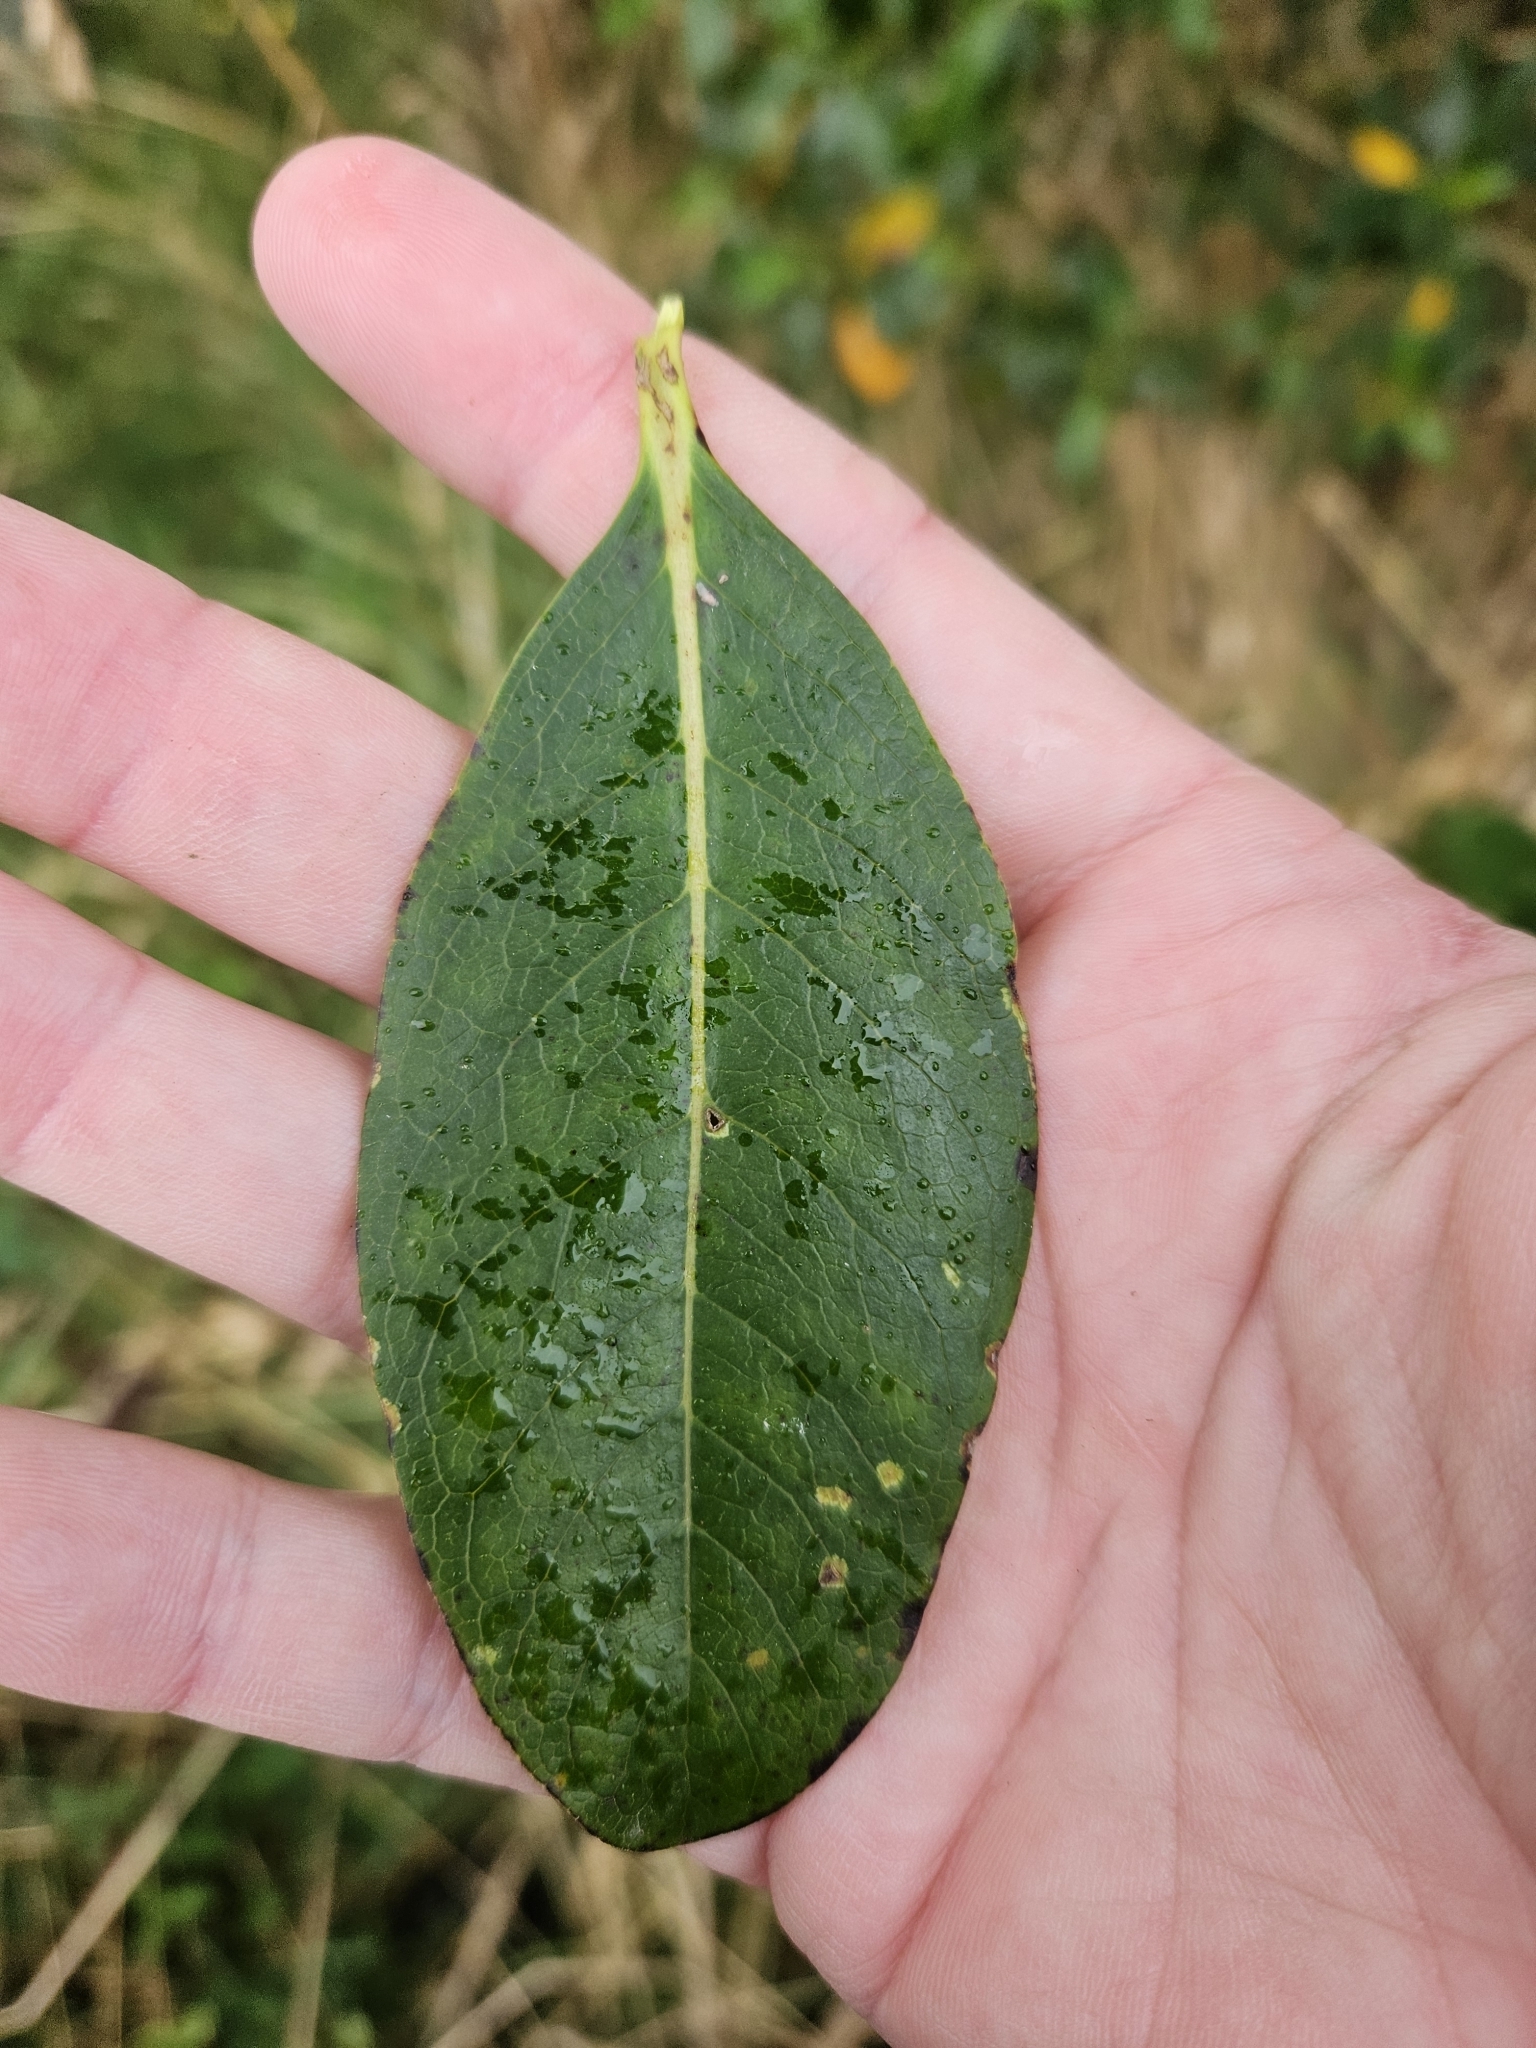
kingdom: Plantae
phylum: Tracheophyta
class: Magnoliopsida
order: Gentianales
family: Rubiaceae
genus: Coprosma
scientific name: Coprosma robusta
